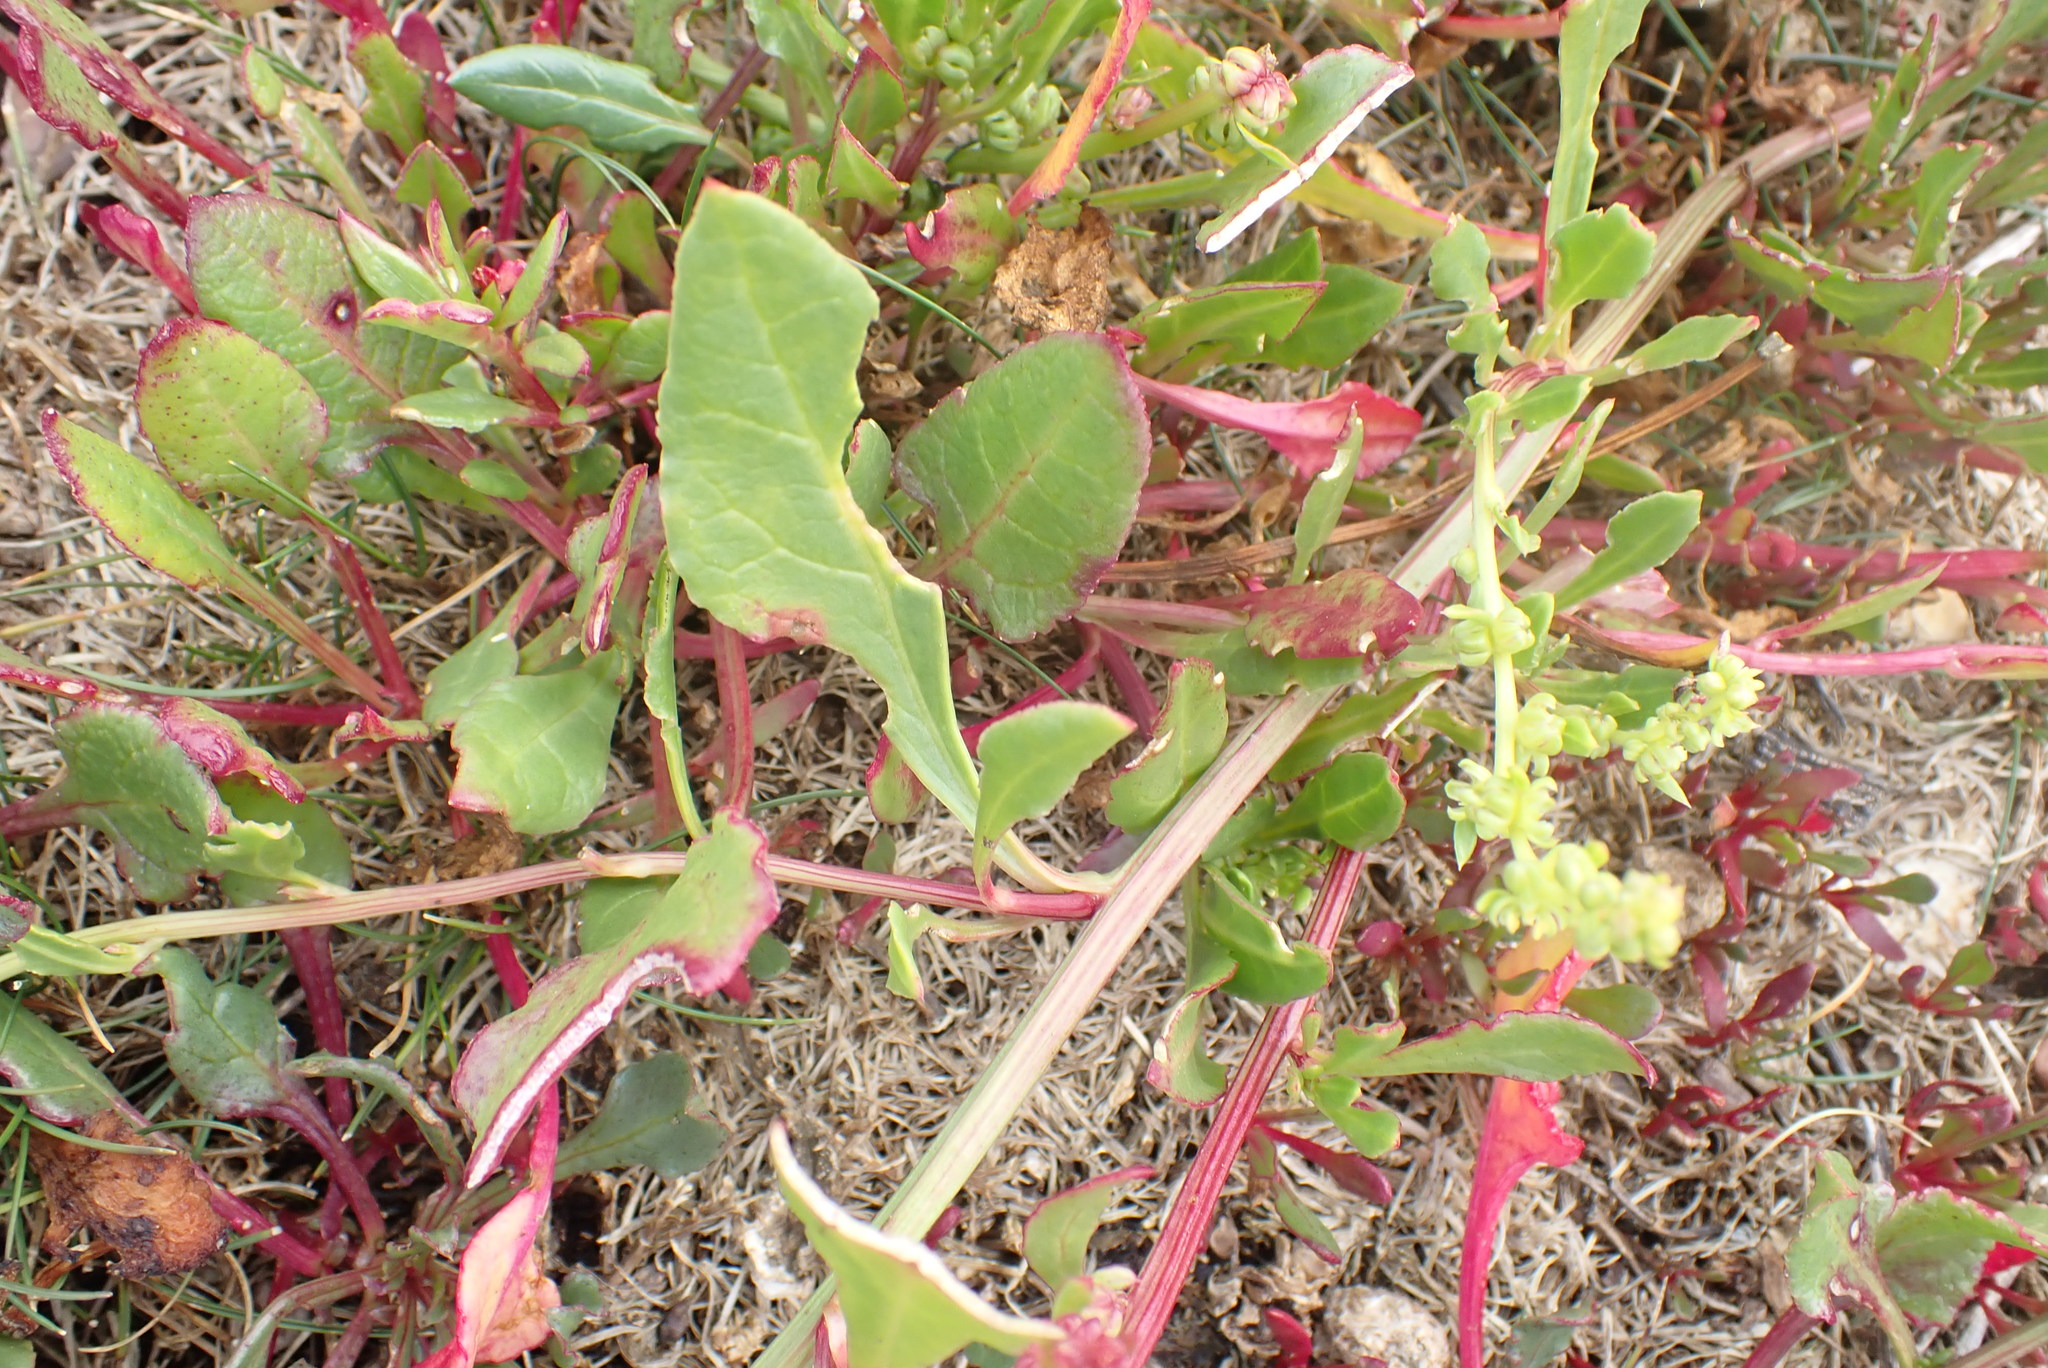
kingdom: Plantae
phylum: Tracheophyta
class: Magnoliopsida
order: Caryophyllales
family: Amaranthaceae
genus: Beta
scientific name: Beta vulgaris
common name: Beet
